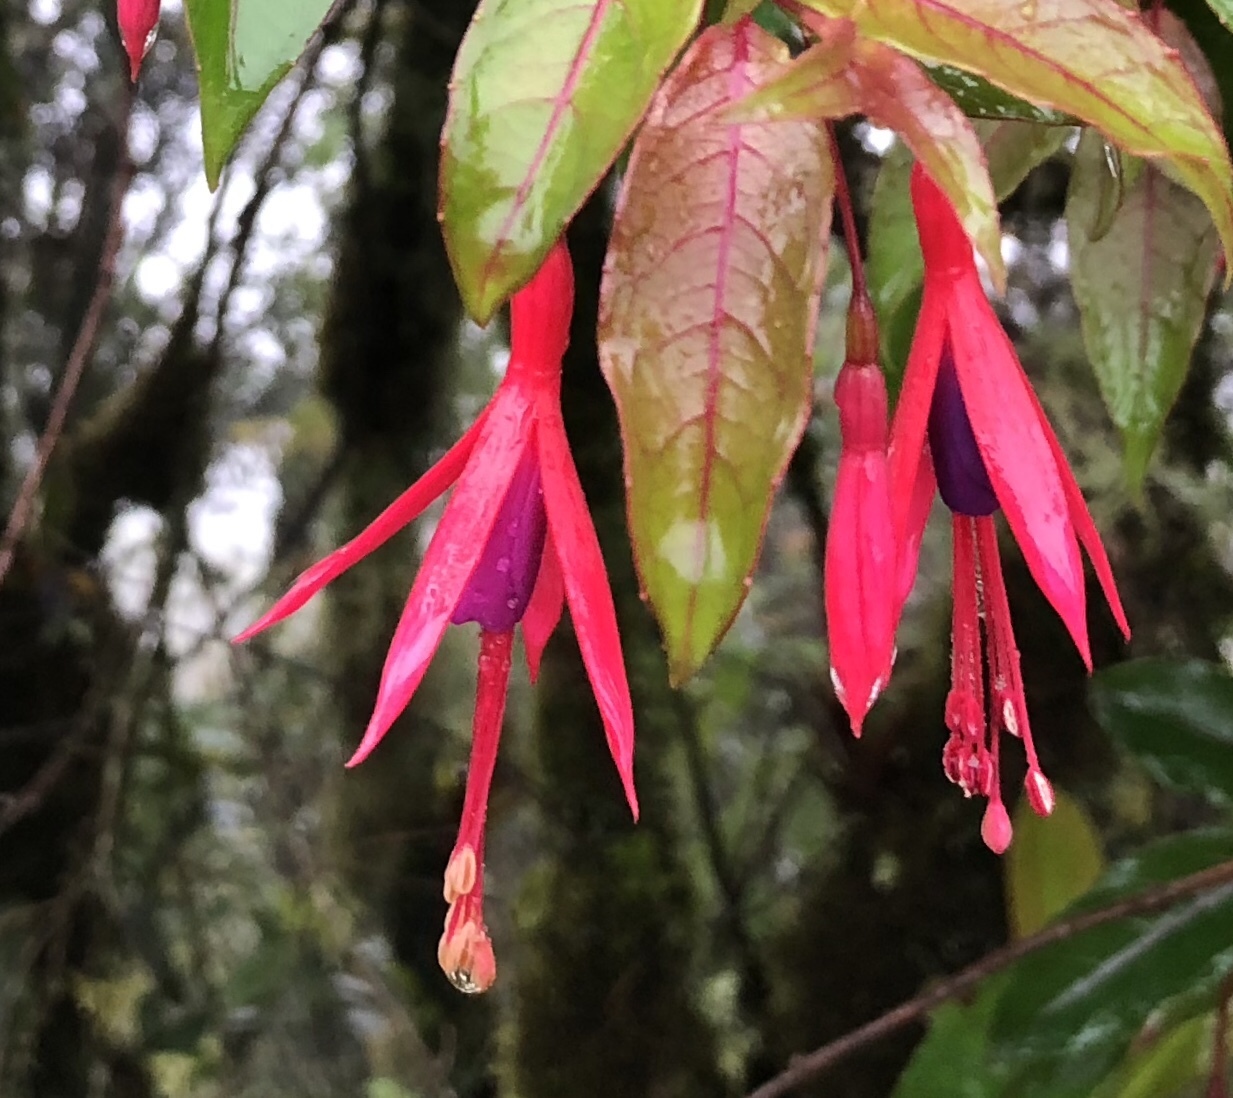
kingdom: Plantae
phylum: Tracheophyta
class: Magnoliopsida
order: Myrtales
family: Onagraceae
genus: Fuchsia
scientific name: Fuchsia regia
